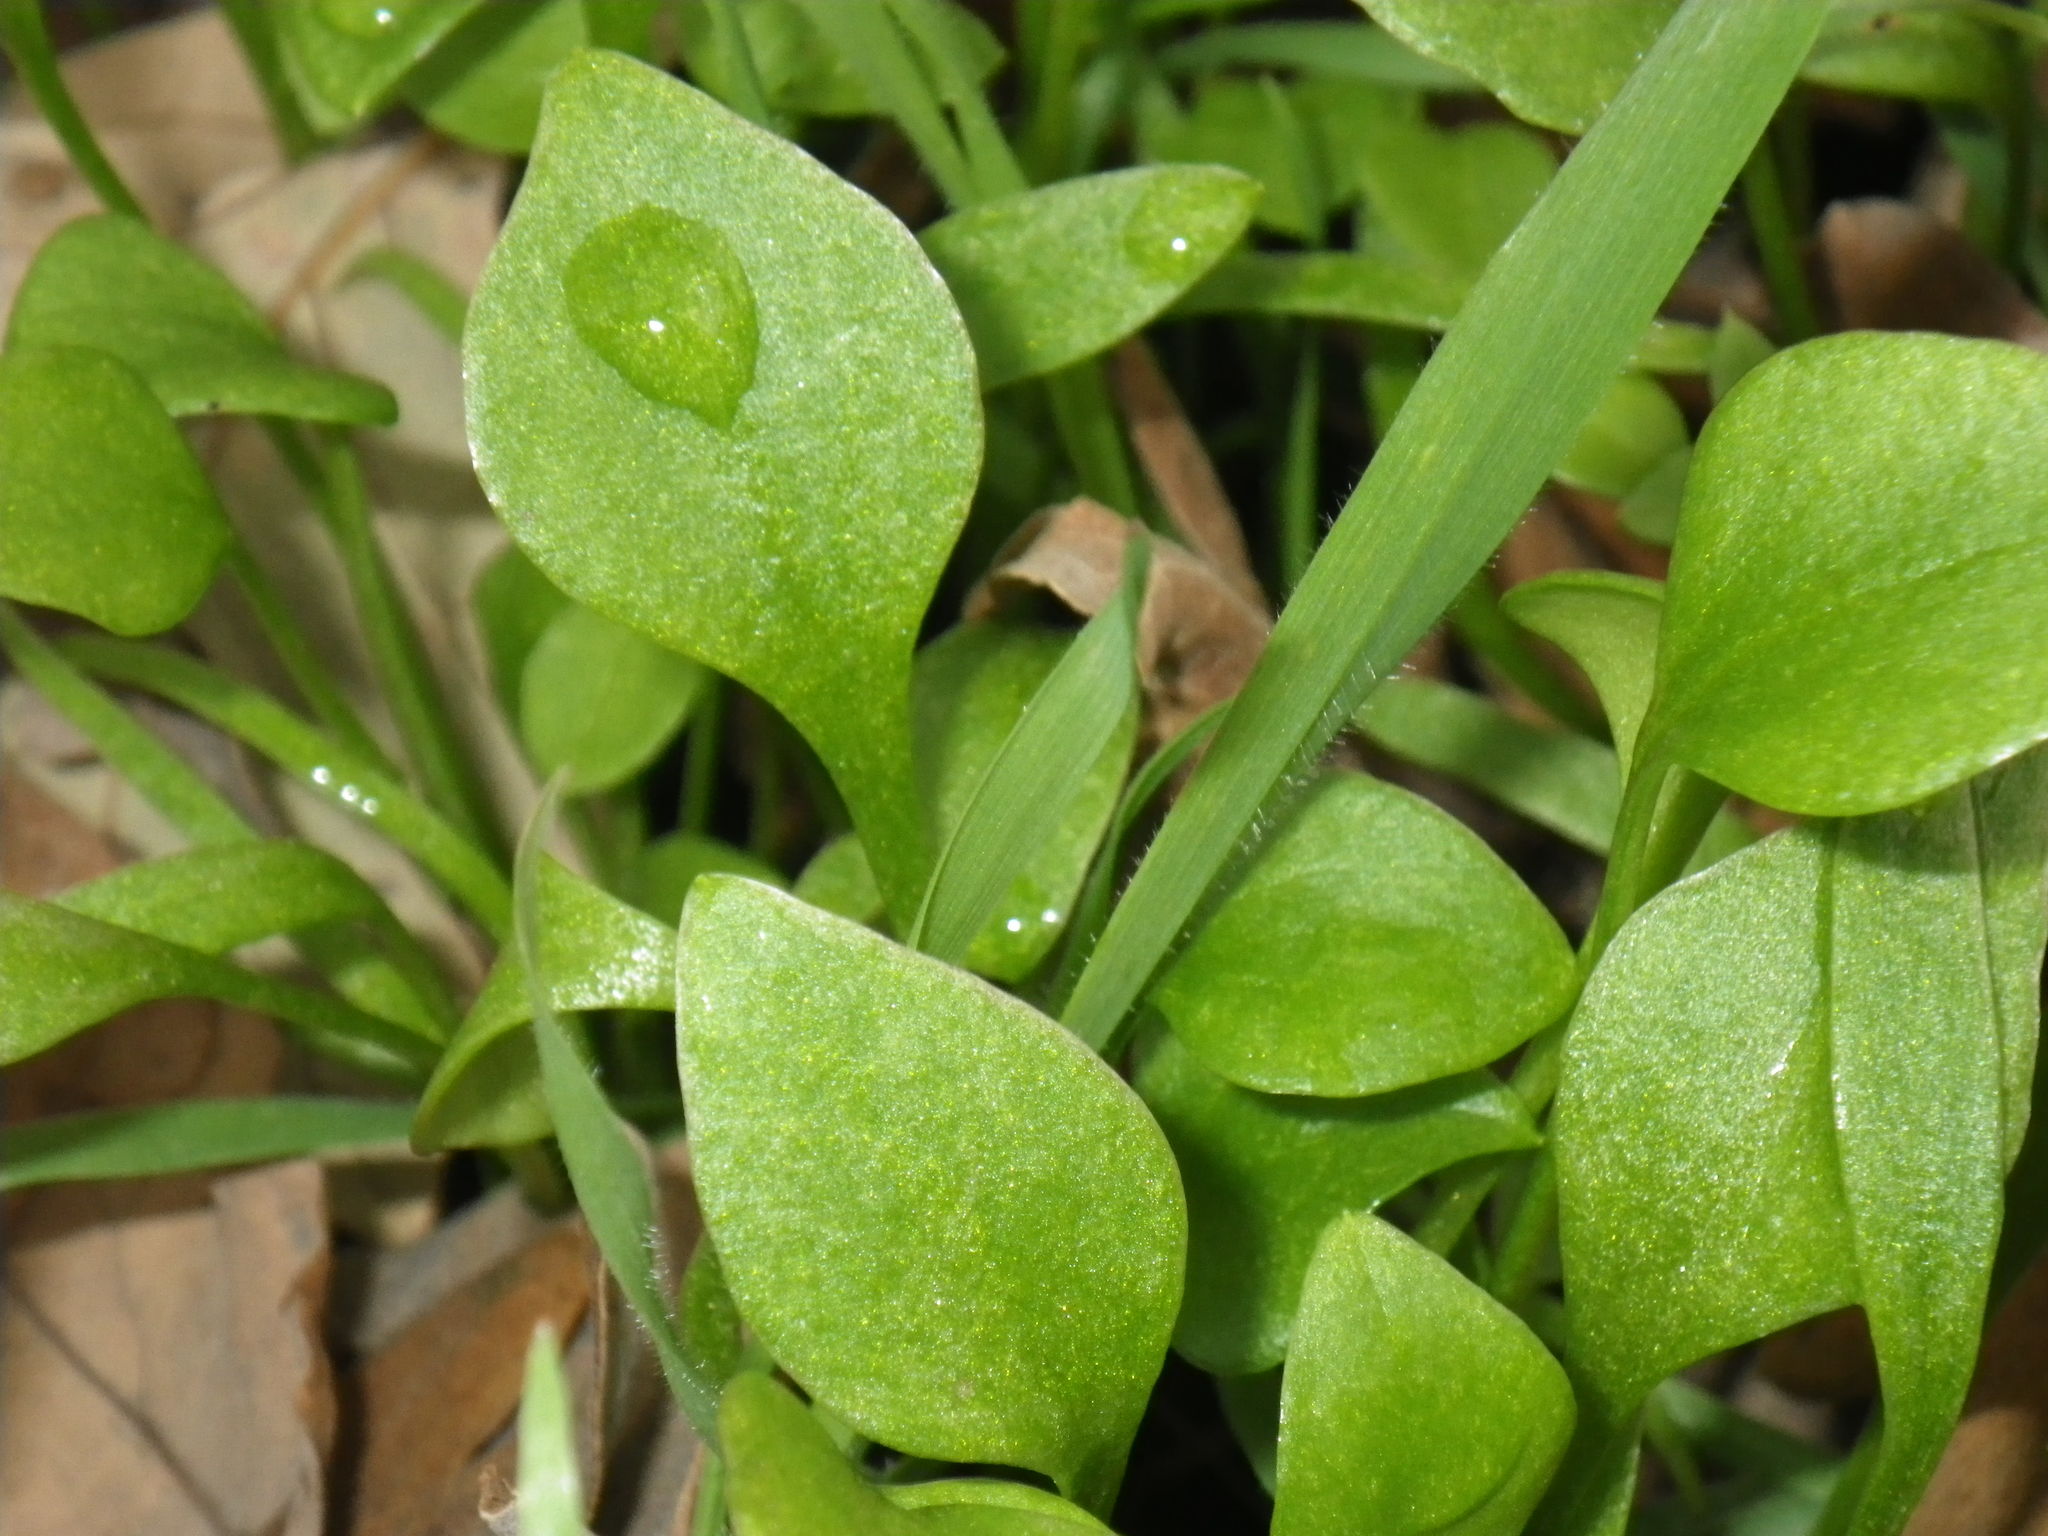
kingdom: Plantae
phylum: Tracheophyta
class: Magnoliopsida
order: Caryophyllales
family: Montiaceae
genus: Claytonia
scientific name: Claytonia perfoliata
